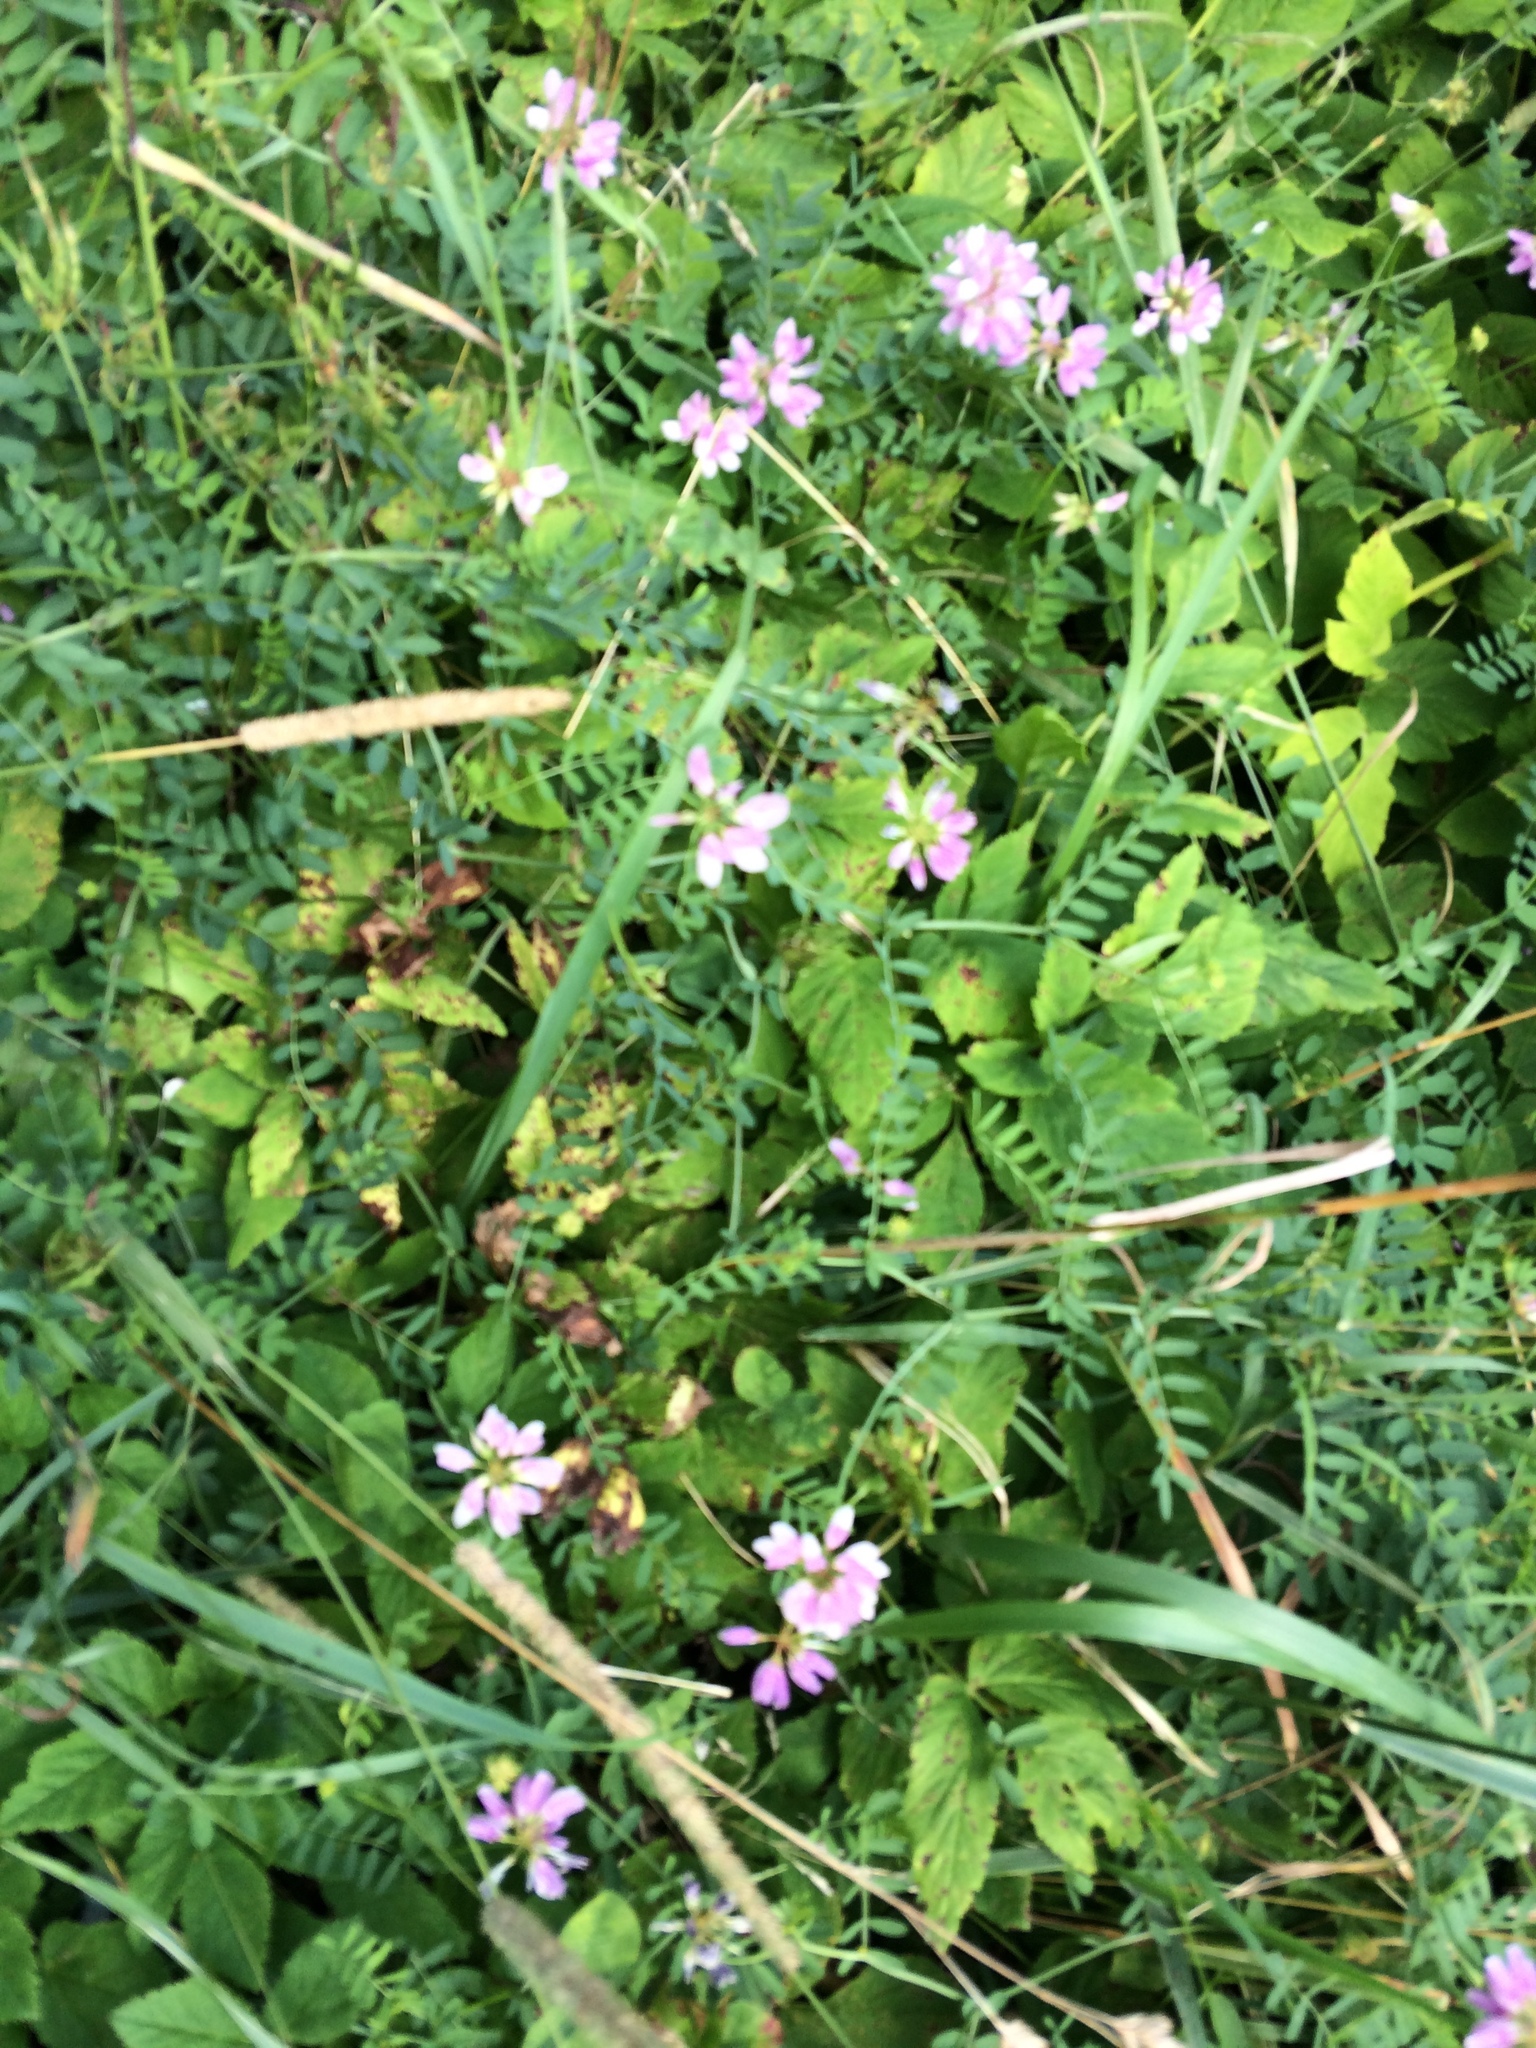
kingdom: Plantae
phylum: Tracheophyta
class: Magnoliopsida
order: Fabales
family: Fabaceae
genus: Coronilla
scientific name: Coronilla varia
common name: Crownvetch
